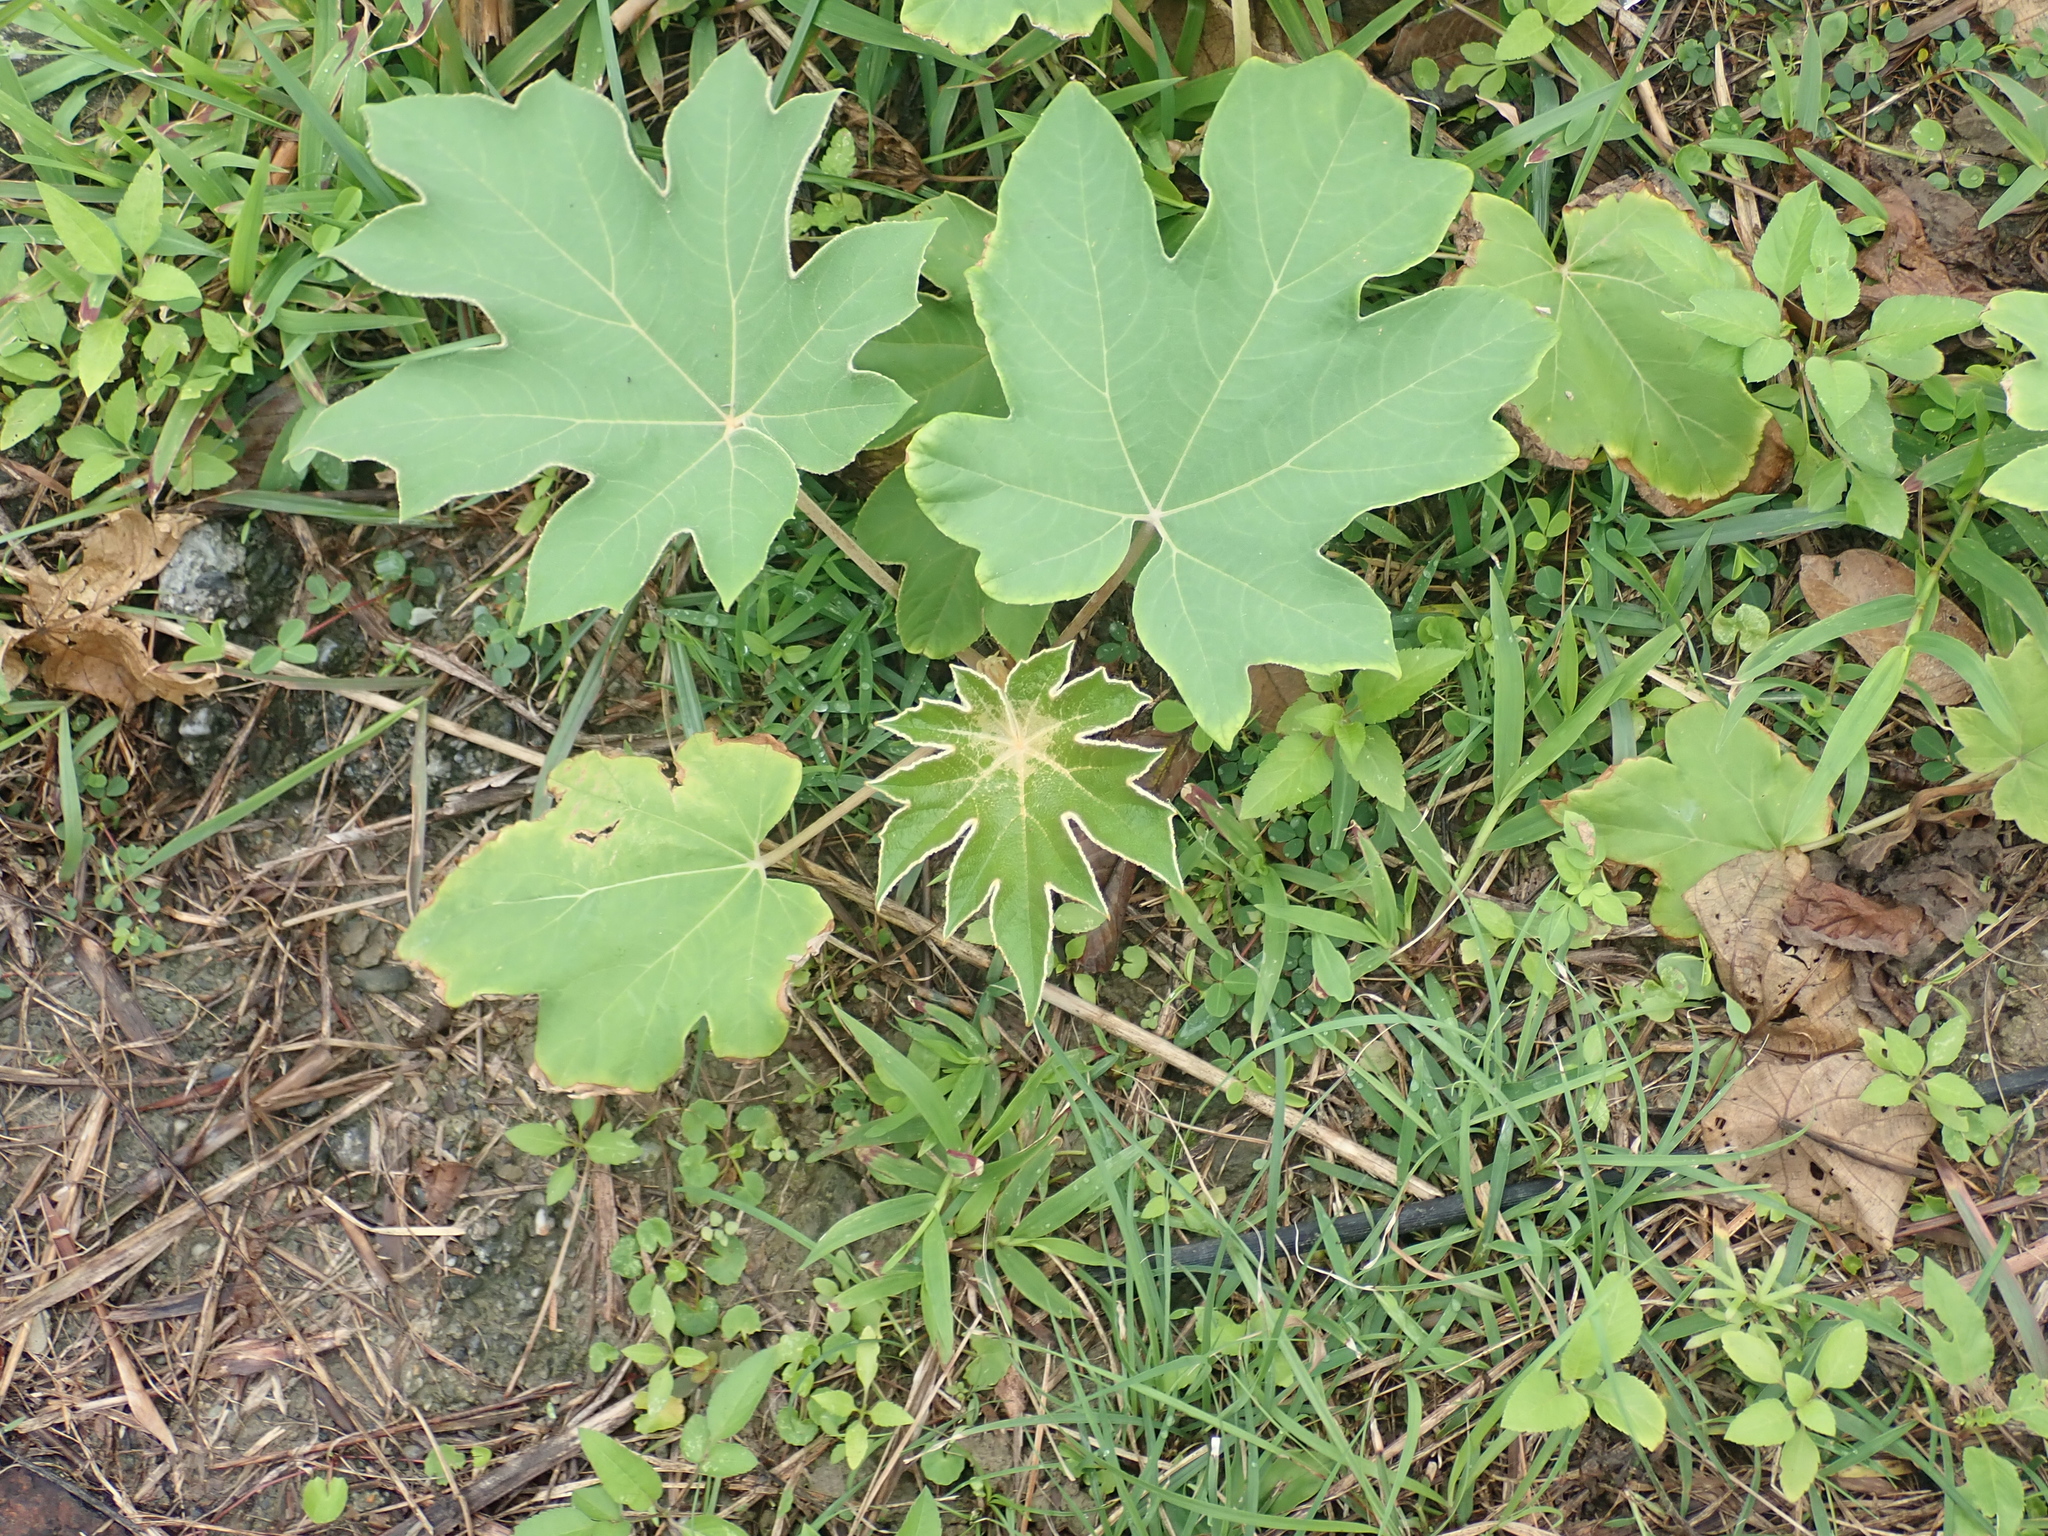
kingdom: Plantae
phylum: Tracheophyta
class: Magnoliopsida
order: Apiales
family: Araliaceae
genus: Tetrapanax
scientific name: Tetrapanax papyrifer
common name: Rice-paper plant
